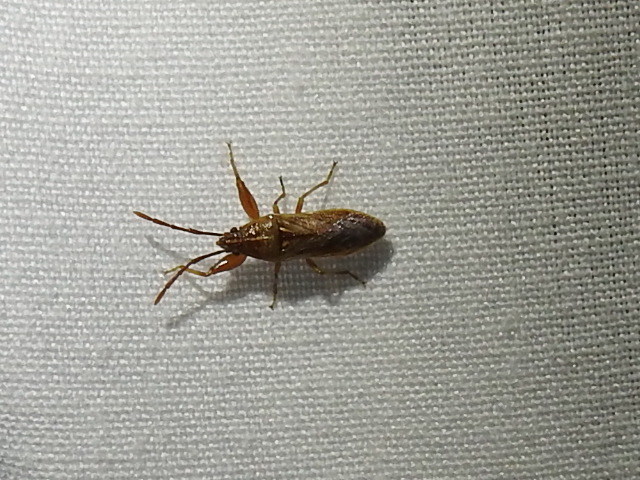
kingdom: Animalia
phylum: Arthropoda
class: Insecta
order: Hemiptera
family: Pachygronthidae
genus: Oedancala
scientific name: Oedancala crassimana
